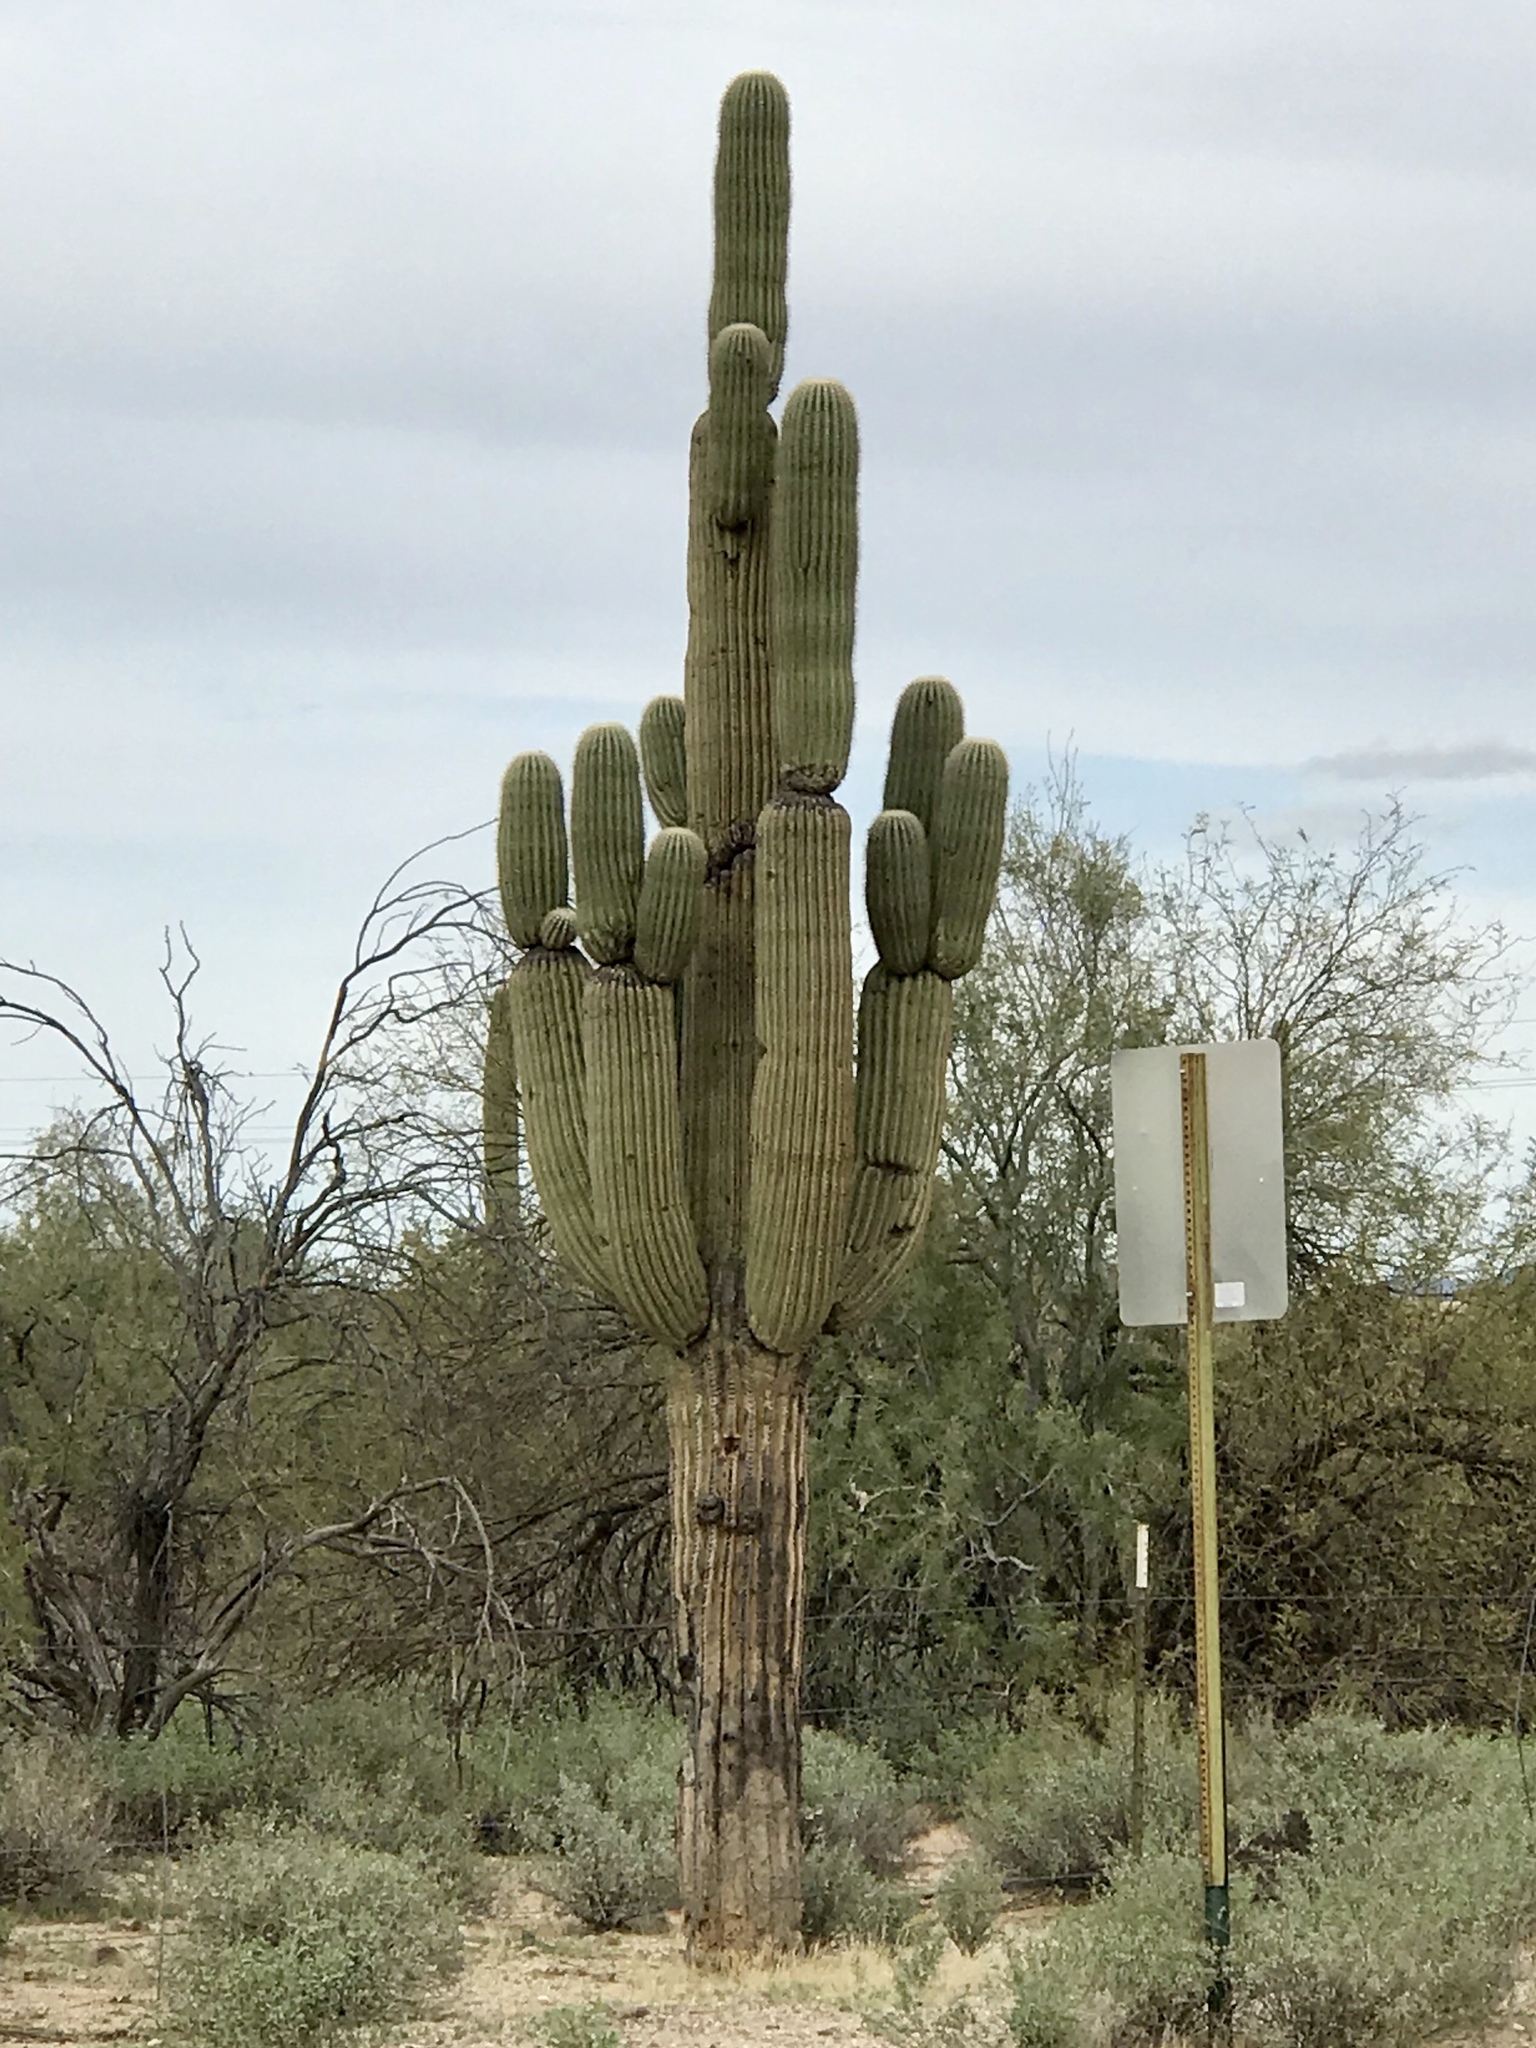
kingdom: Plantae
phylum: Tracheophyta
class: Magnoliopsida
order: Caryophyllales
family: Cactaceae
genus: Carnegiea
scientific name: Carnegiea gigantea
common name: Saguaro
